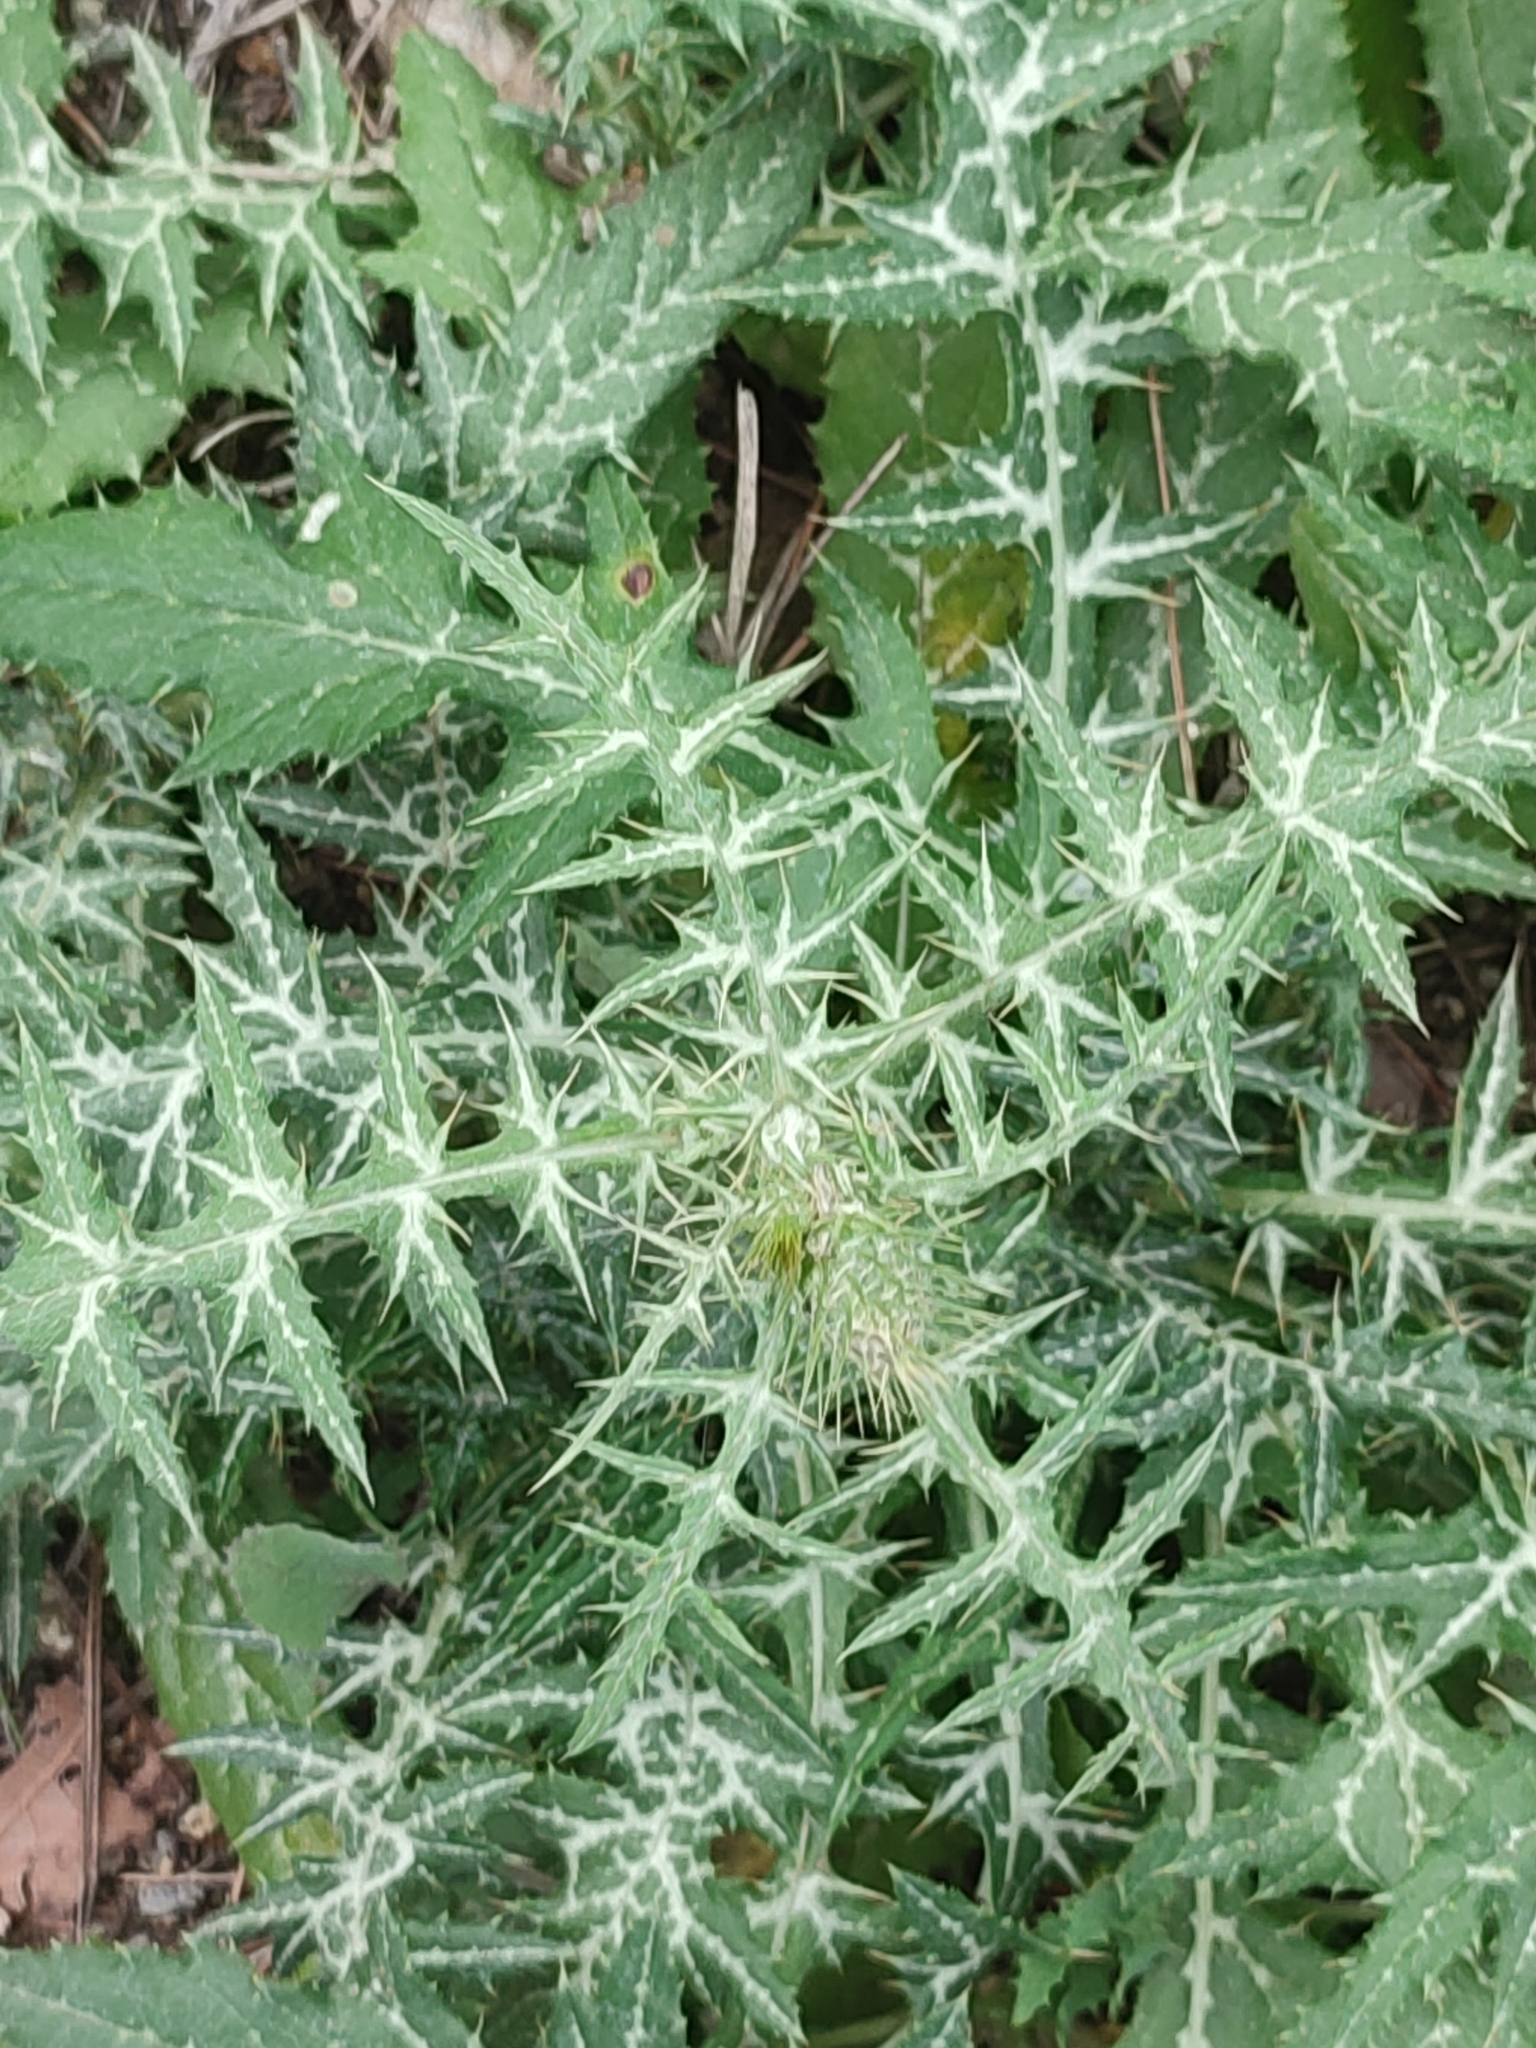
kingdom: Plantae
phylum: Tracheophyta
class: Magnoliopsida
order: Asterales
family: Asteraceae
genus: Galactites
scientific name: Galactites tomentosa
